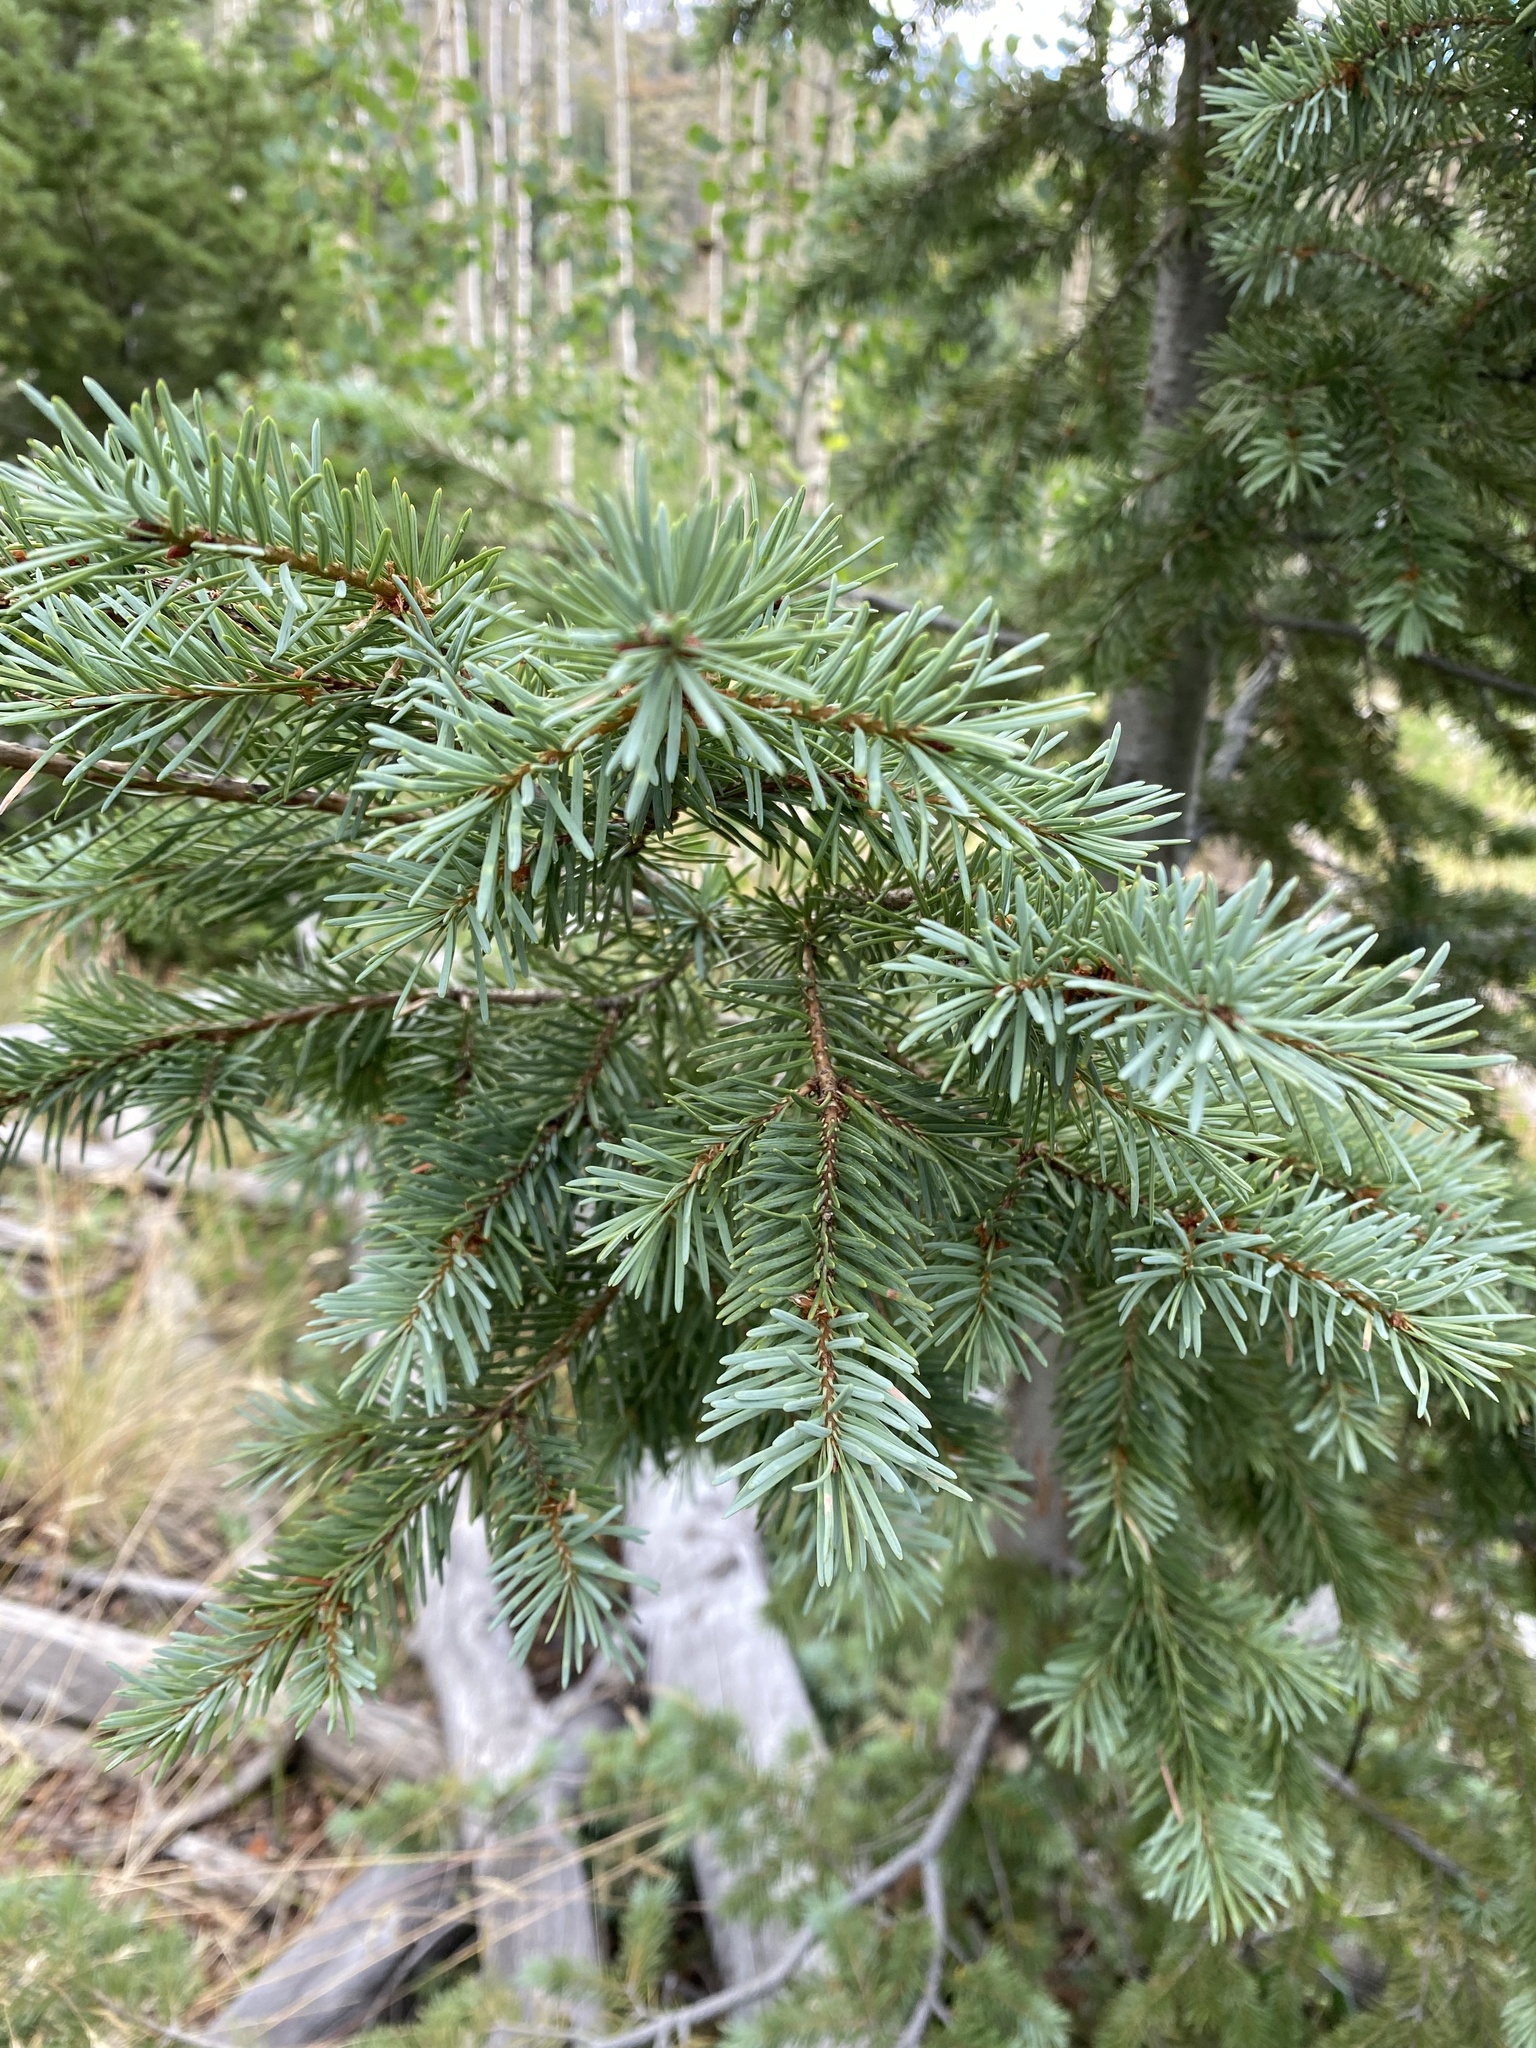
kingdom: Plantae
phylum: Tracheophyta
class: Pinopsida
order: Pinales
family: Pinaceae
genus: Pseudotsuga
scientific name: Pseudotsuga menziesii
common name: Douglas fir
